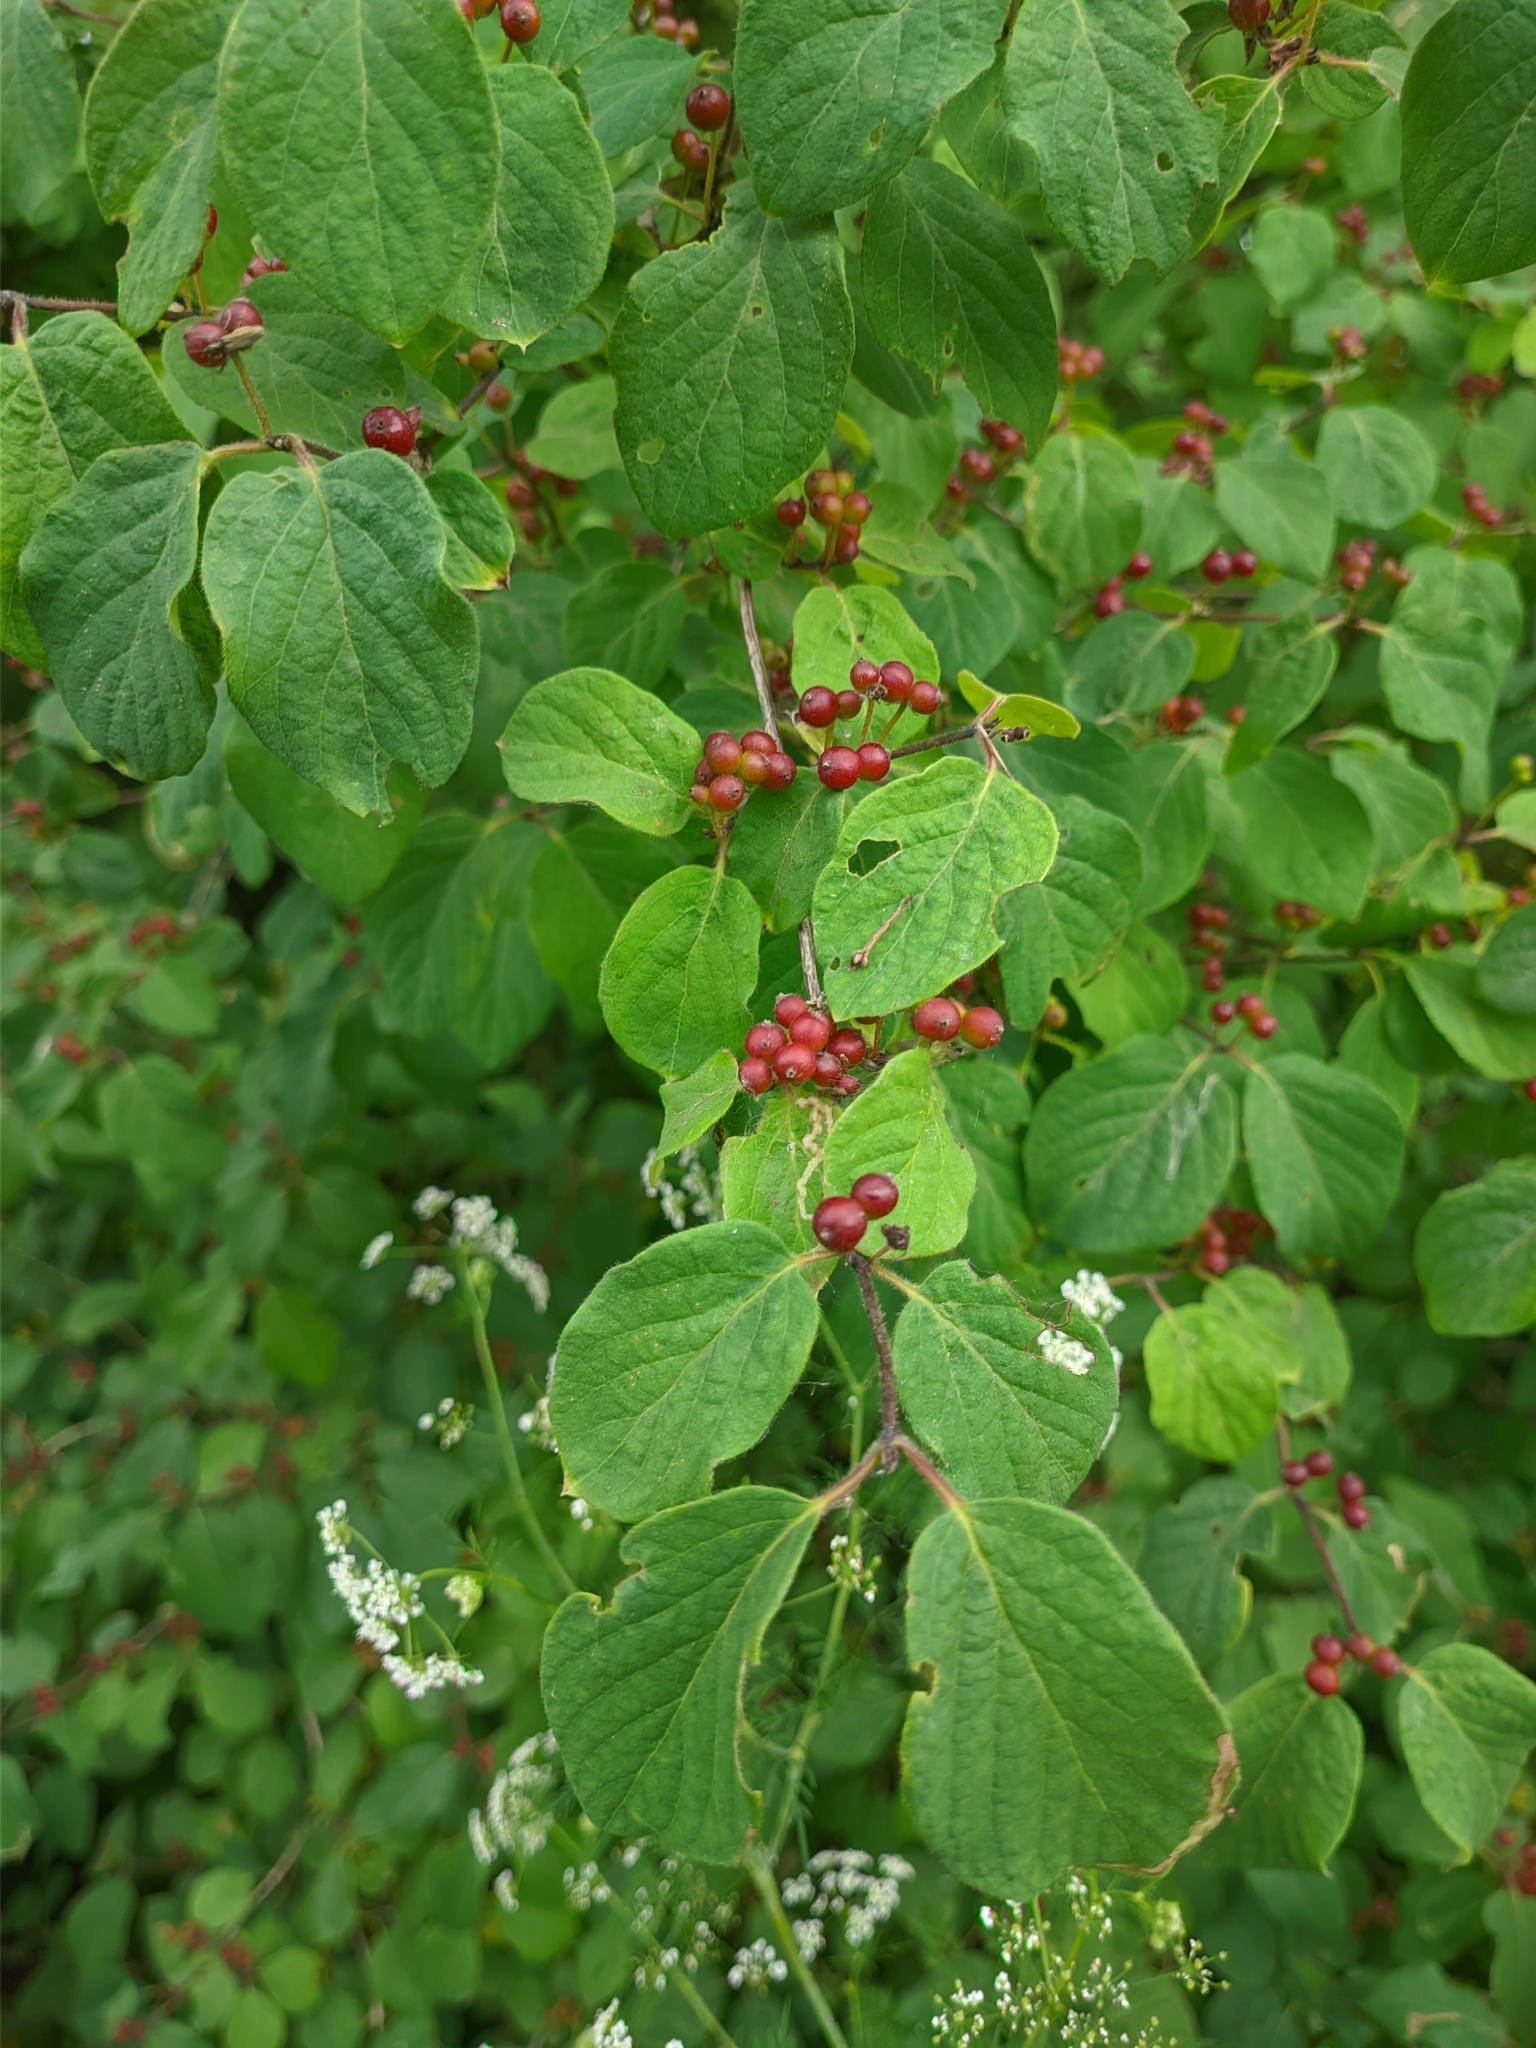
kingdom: Plantae
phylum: Tracheophyta
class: Magnoliopsida
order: Dipsacales
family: Caprifoliaceae
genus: Lonicera
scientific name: Lonicera xylosteum
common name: Fly honeysuckle
